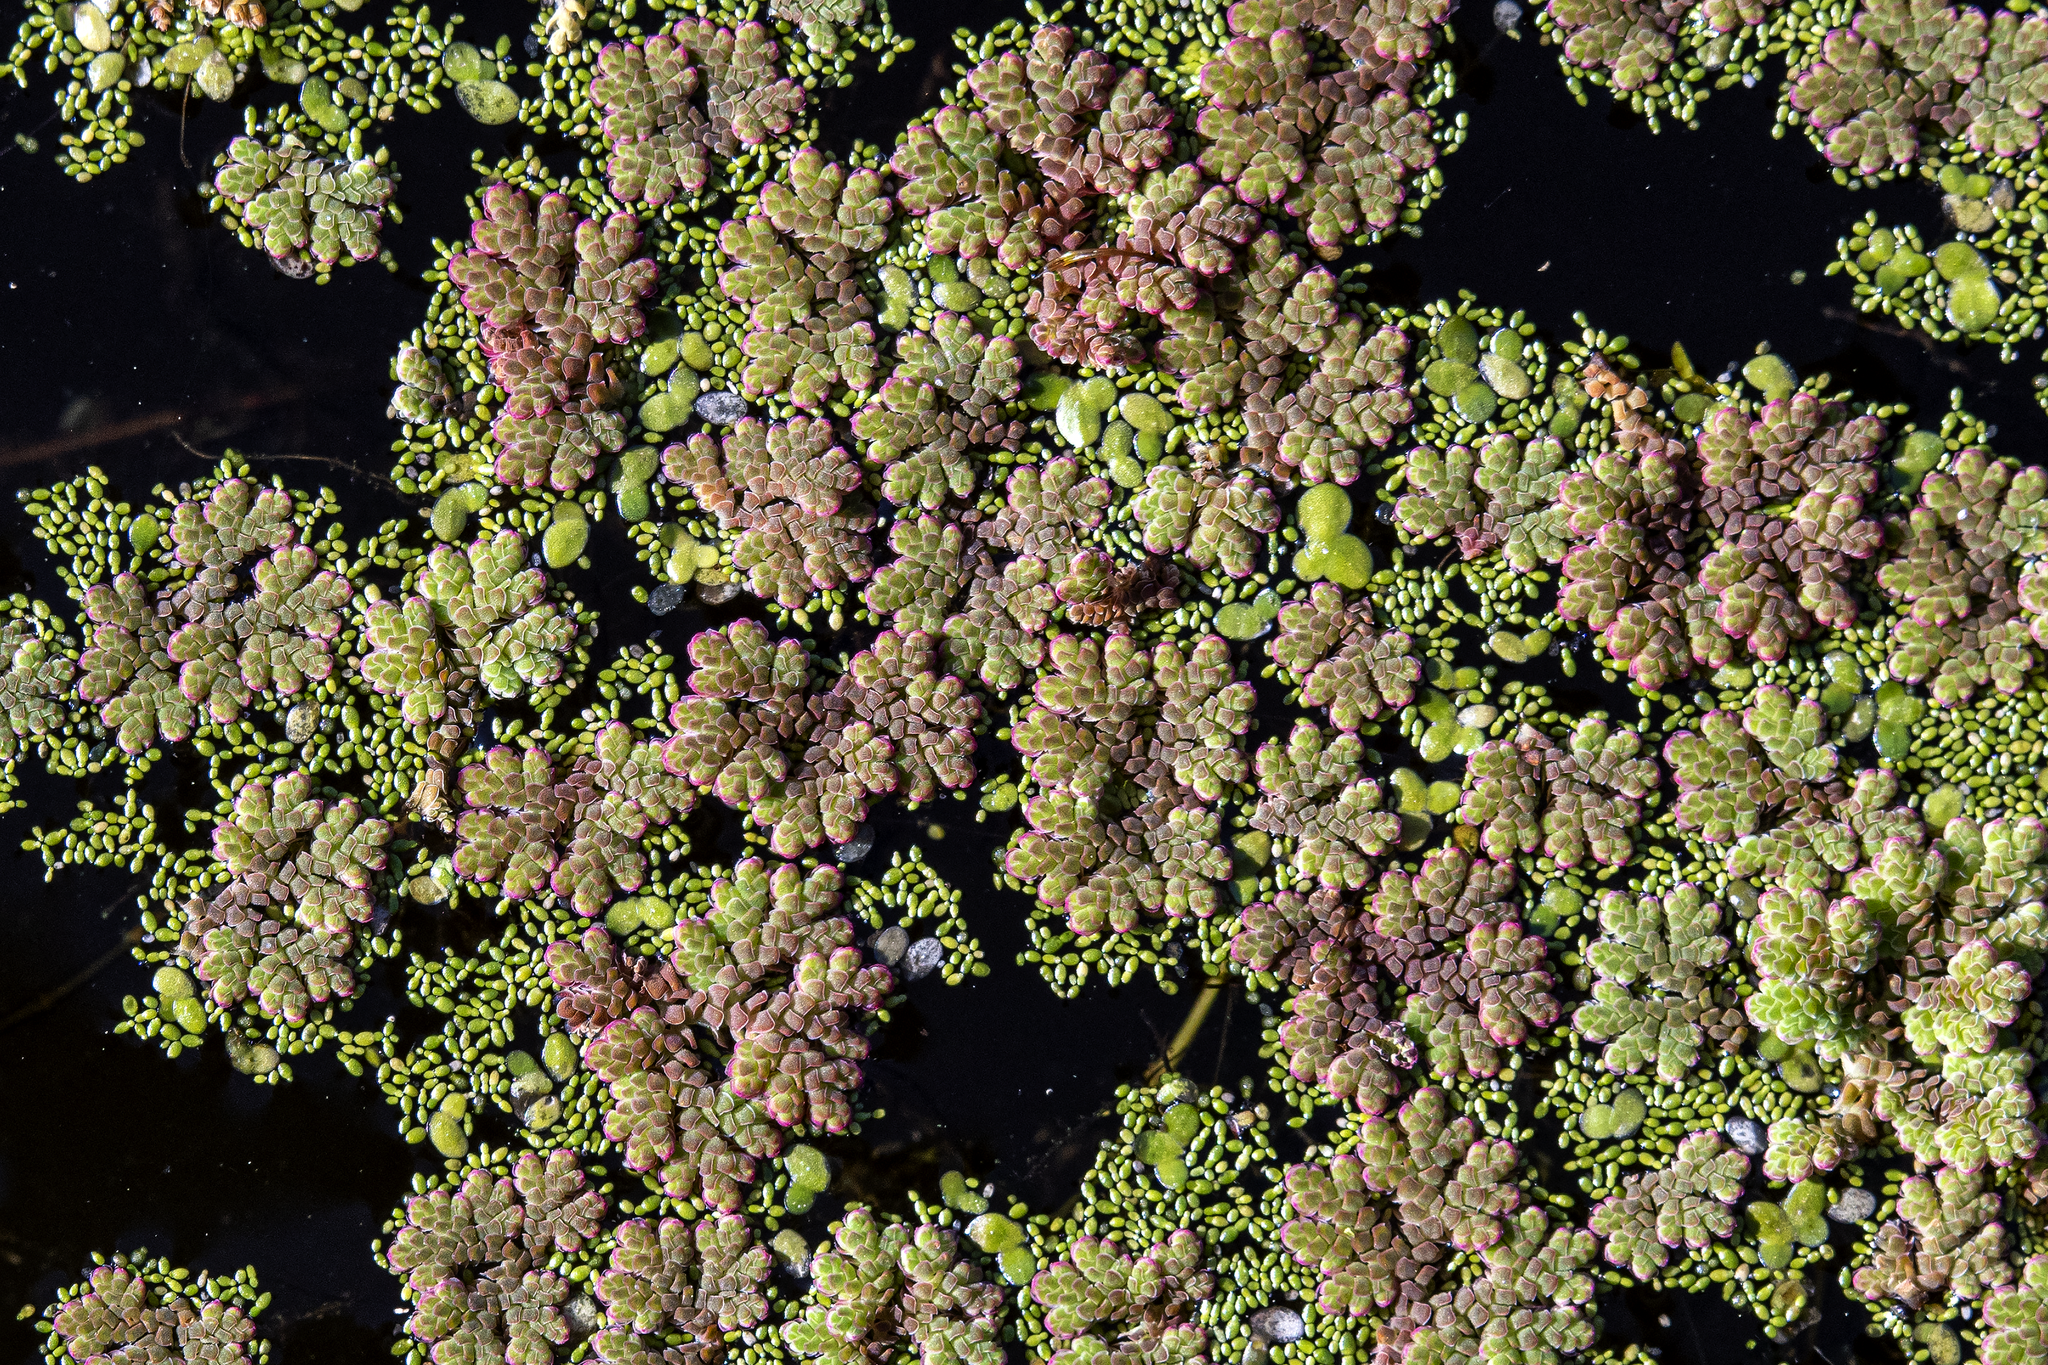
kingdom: Plantae
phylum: Tracheophyta
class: Polypodiopsida
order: Salviniales
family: Salviniaceae
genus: Azolla
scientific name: Azolla filiculoides
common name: Water fern
